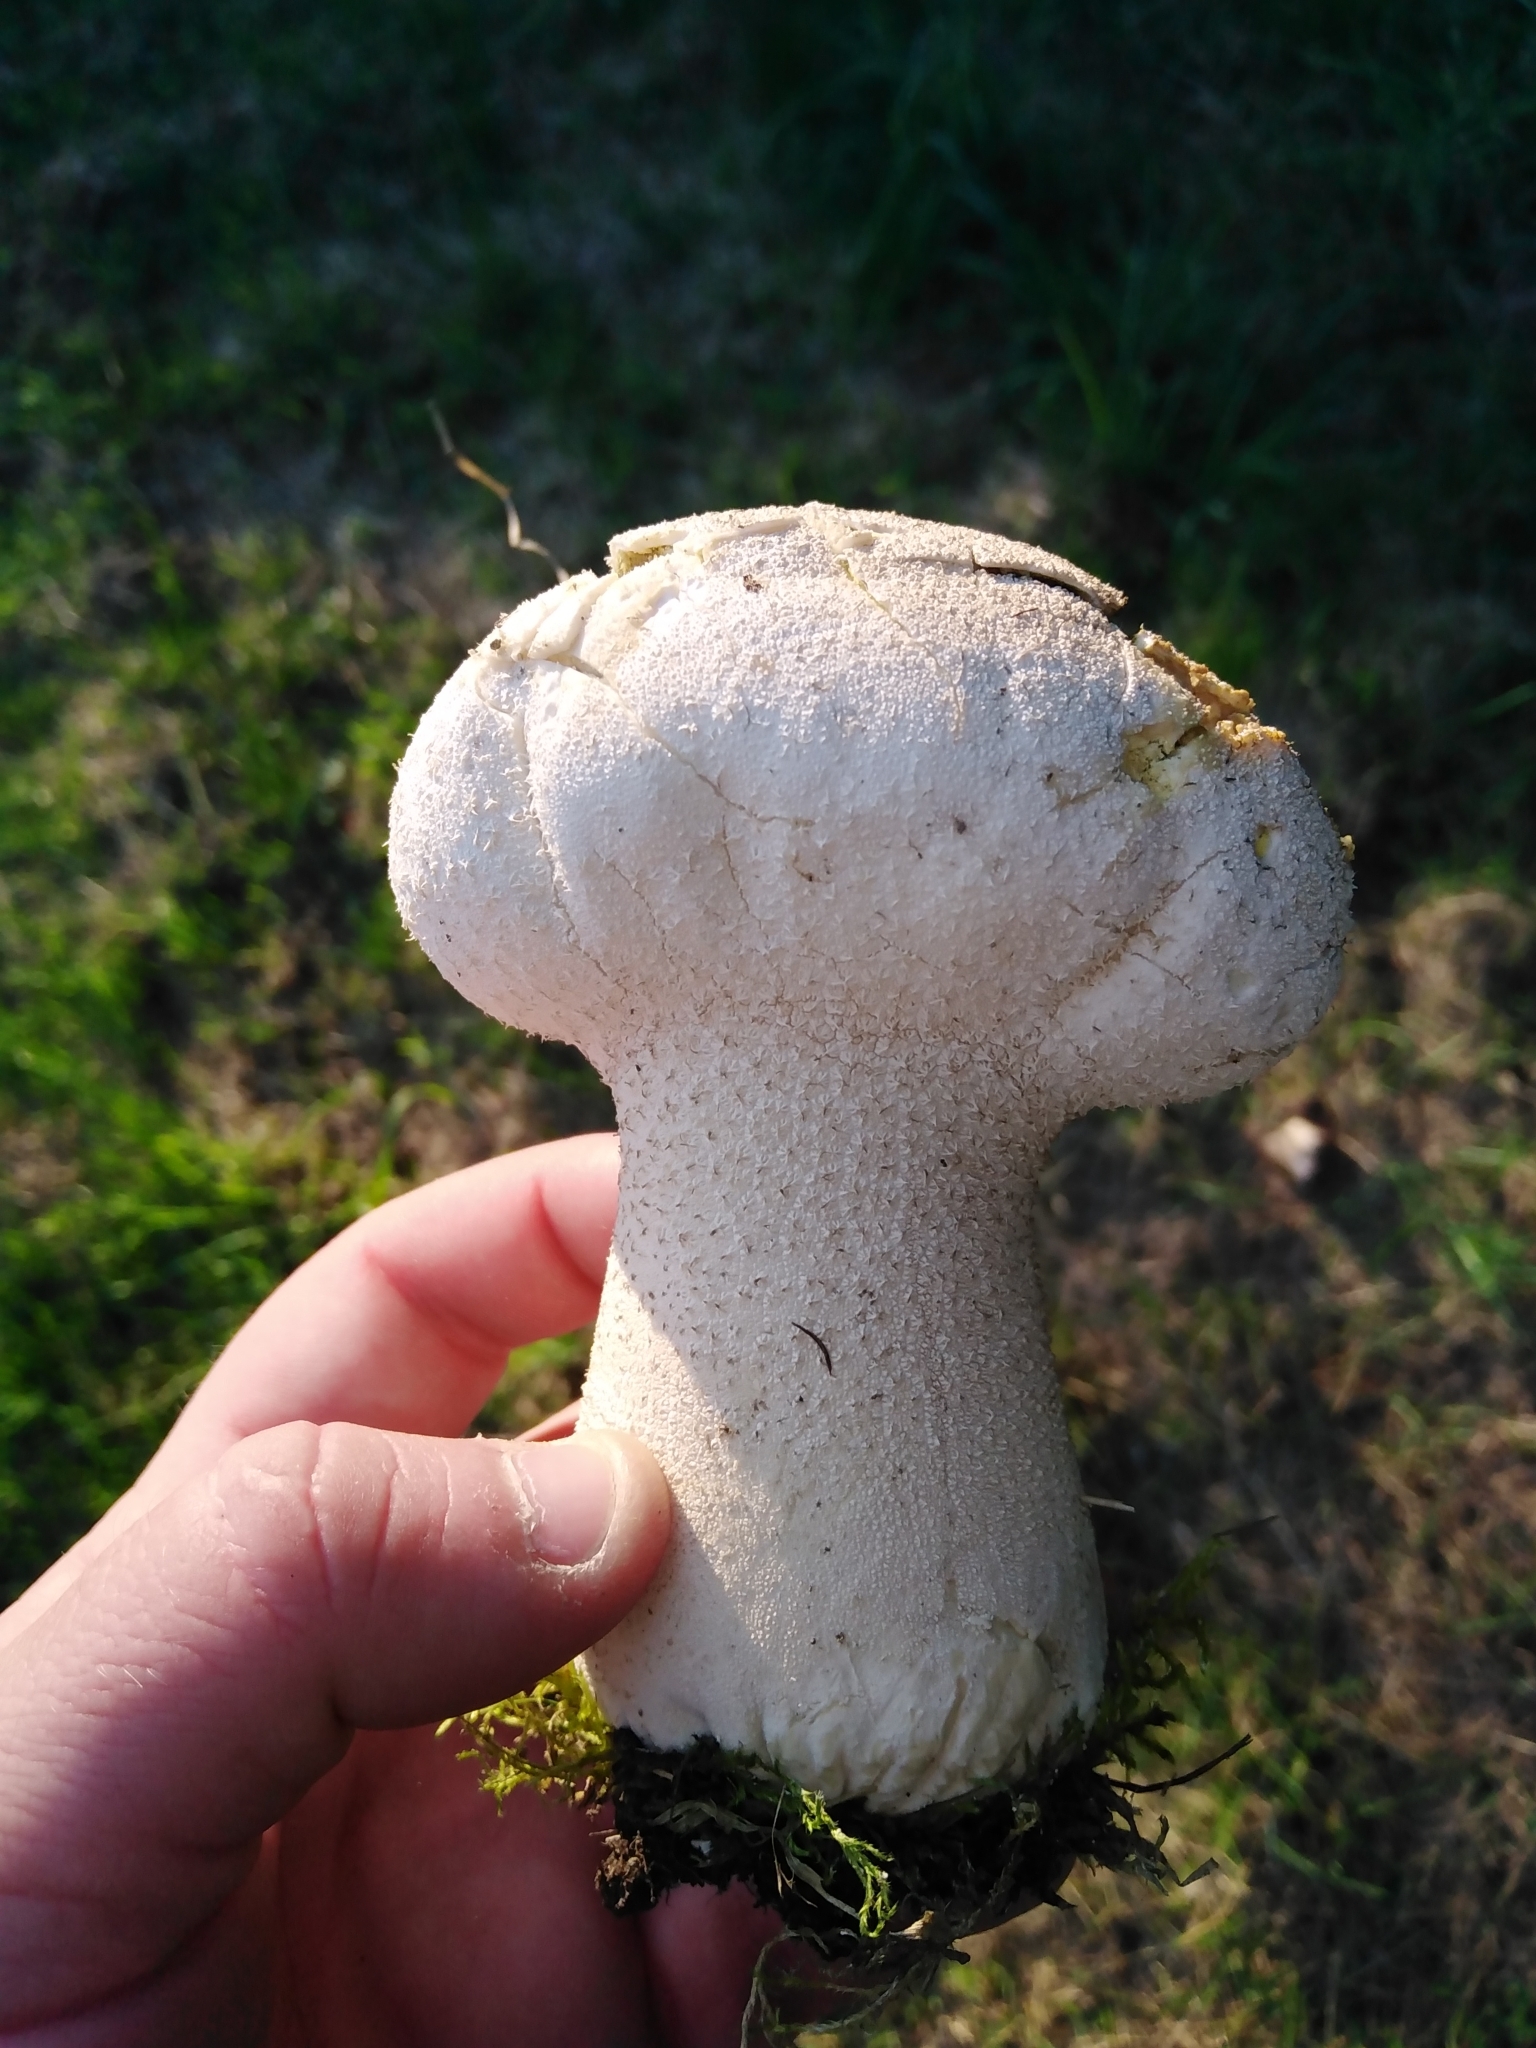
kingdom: Fungi
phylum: Basidiomycota
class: Agaricomycetes
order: Agaricales
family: Lycoperdaceae
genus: Lycoperdon
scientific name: Lycoperdon excipuliforme
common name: Pestle puffball
